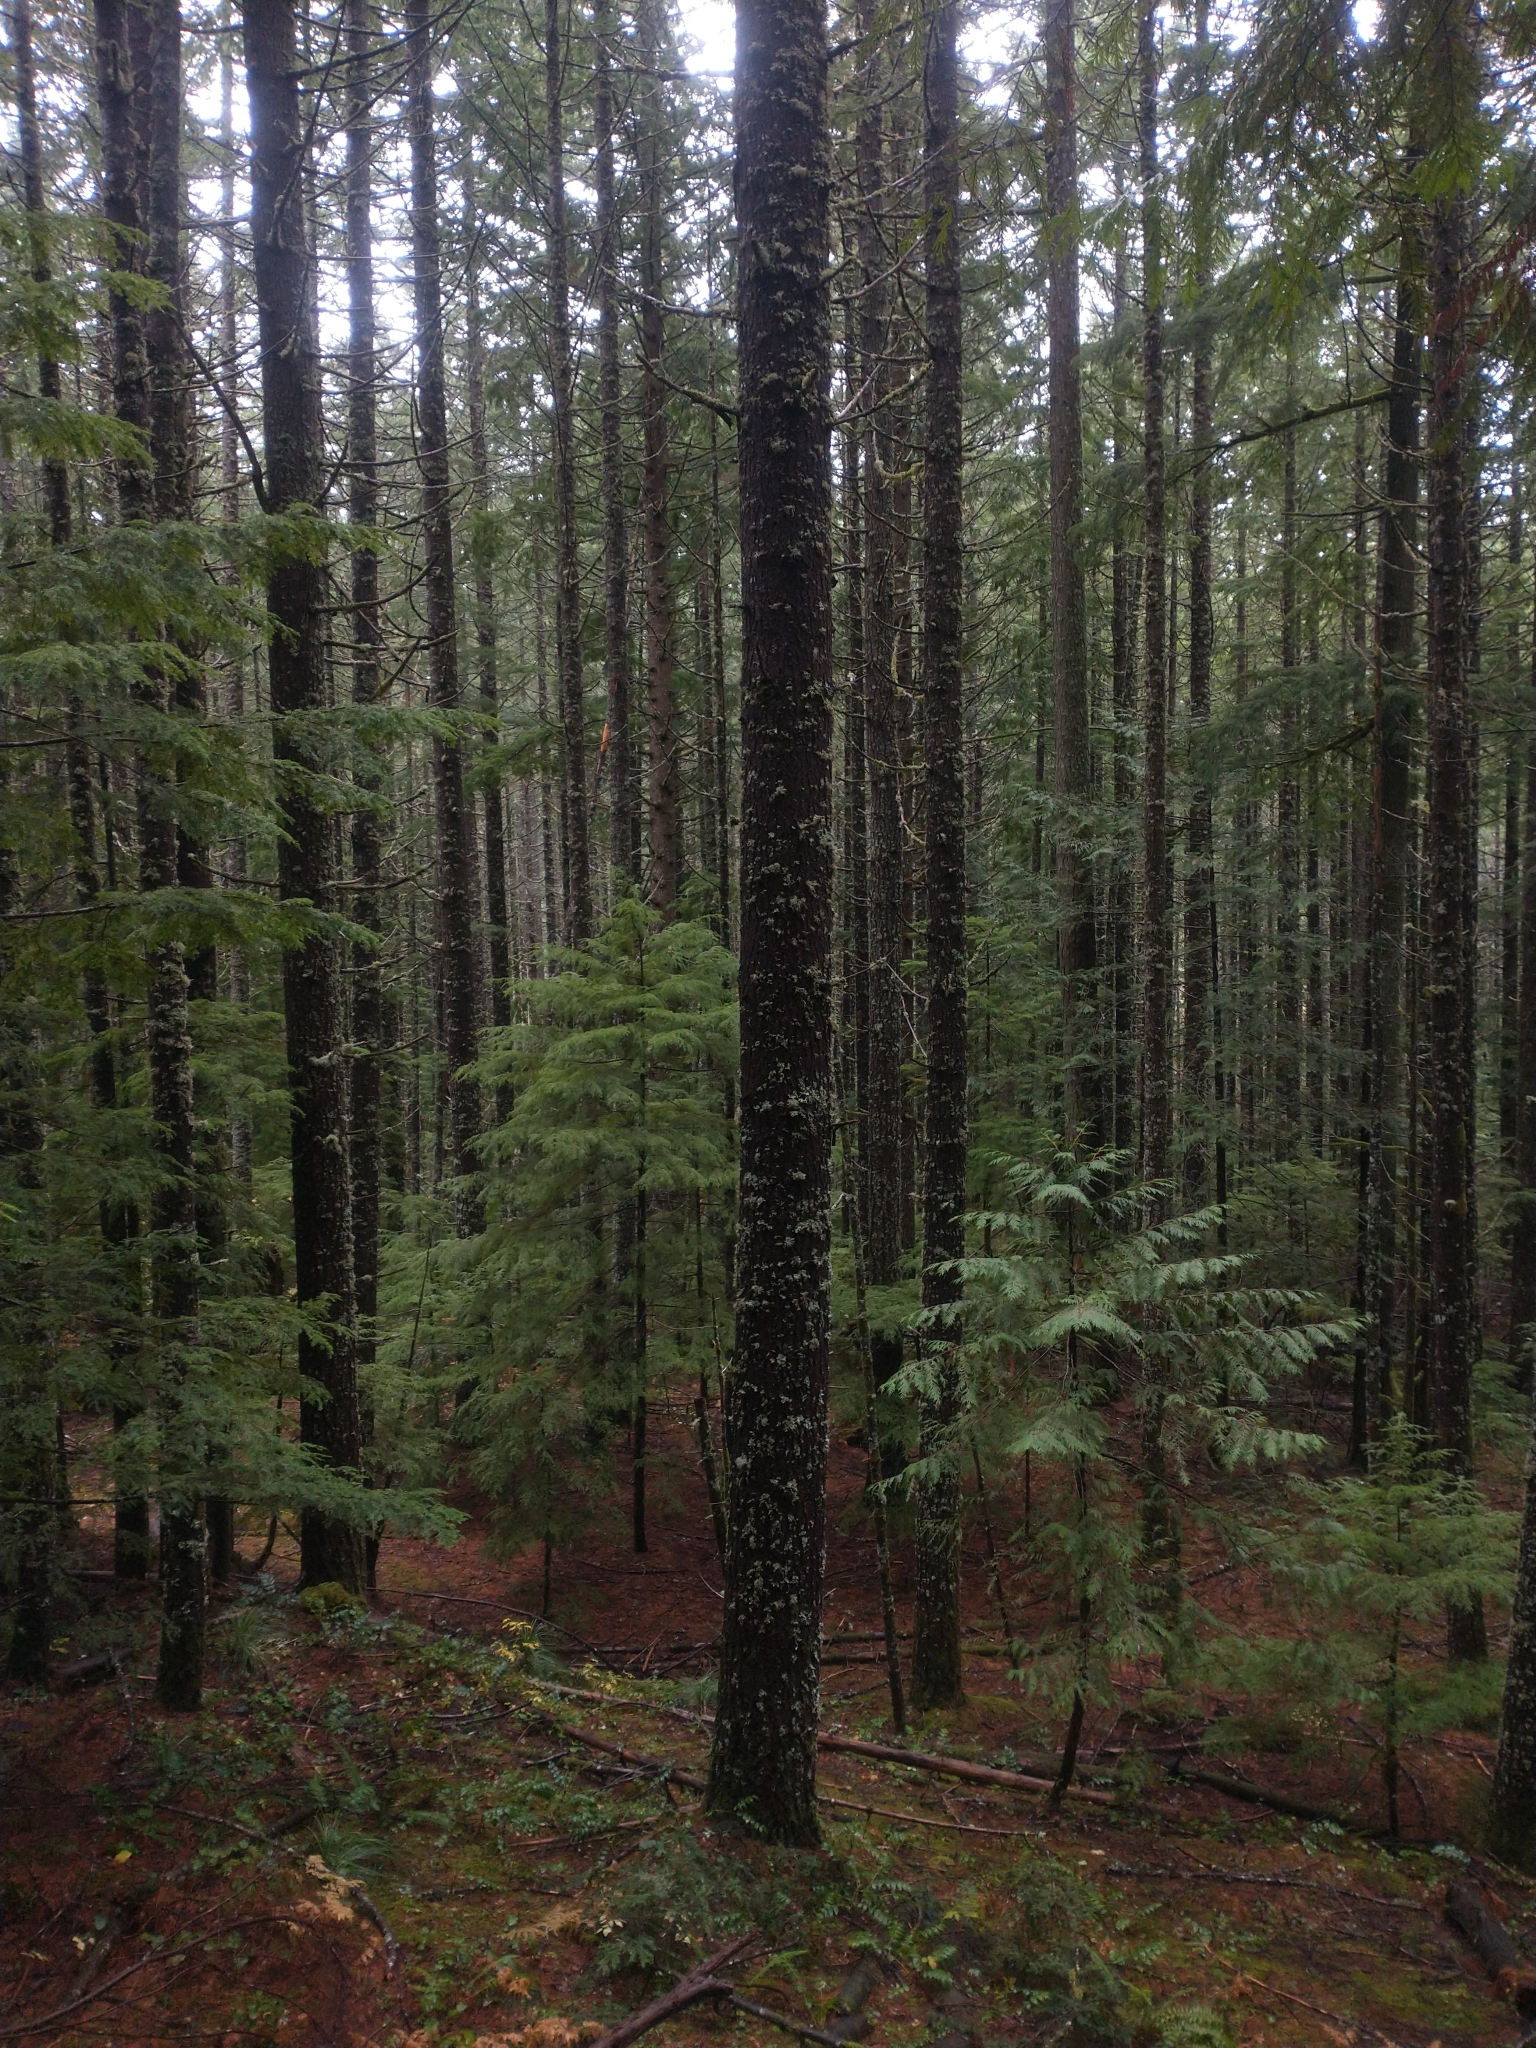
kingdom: Plantae
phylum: Tracheophyta
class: Pinopsida
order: Pinales
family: Pinaceae
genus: Pseudotsuga
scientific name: Pseudotsuga menziesii
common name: Douglas fir
